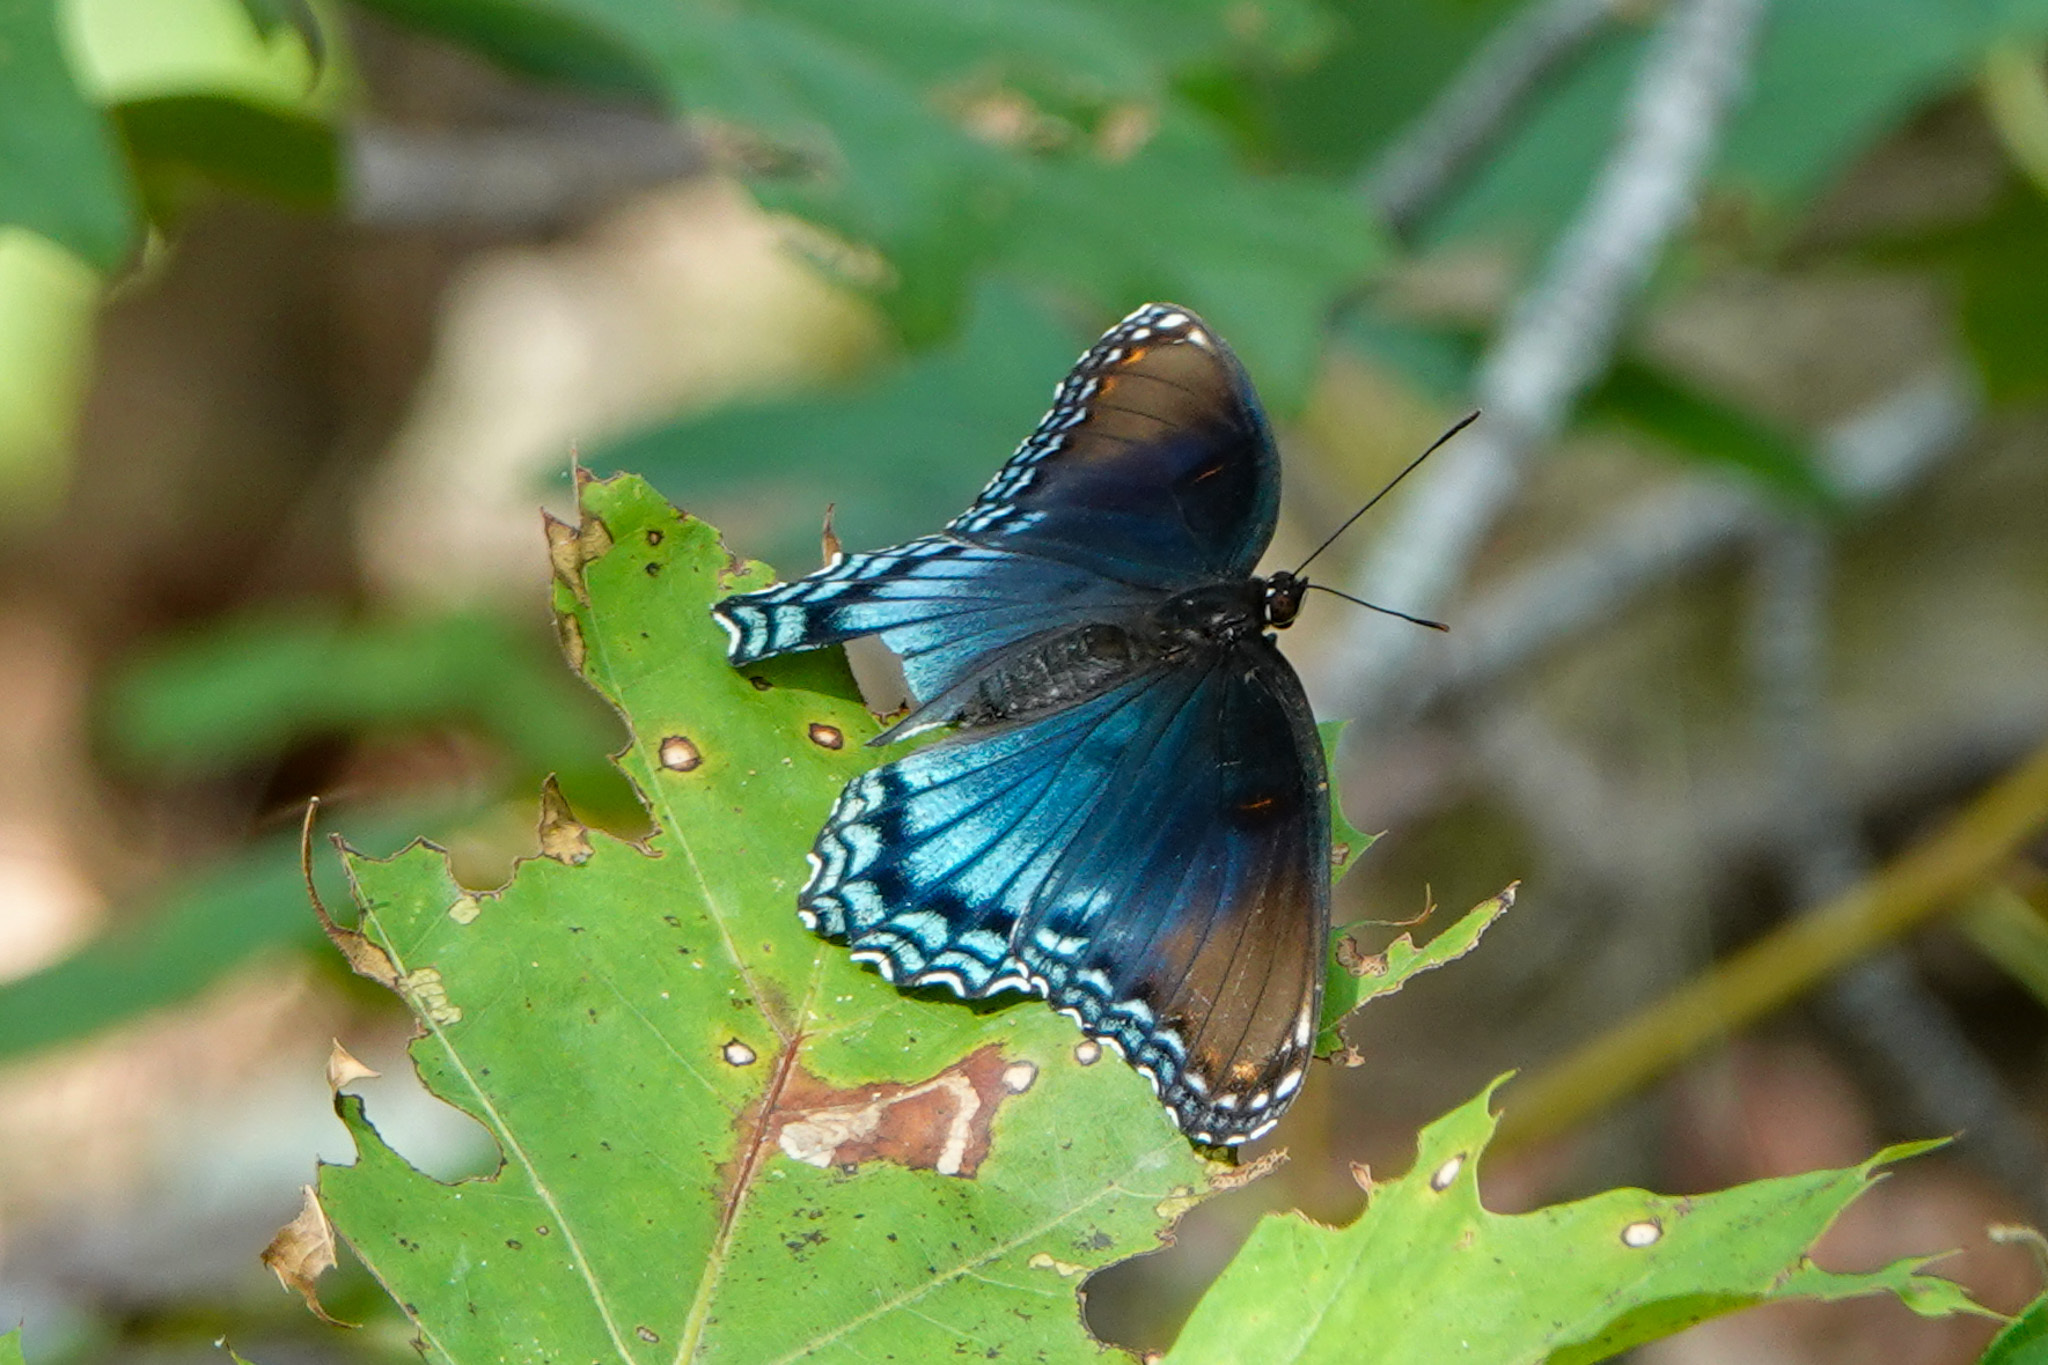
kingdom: Animalia
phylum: Arthropoda
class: Insecta
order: Lepidoptera
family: Nymphalidae
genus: Limenitis
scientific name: Limenitis arthemis
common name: Red-spotted admiral
